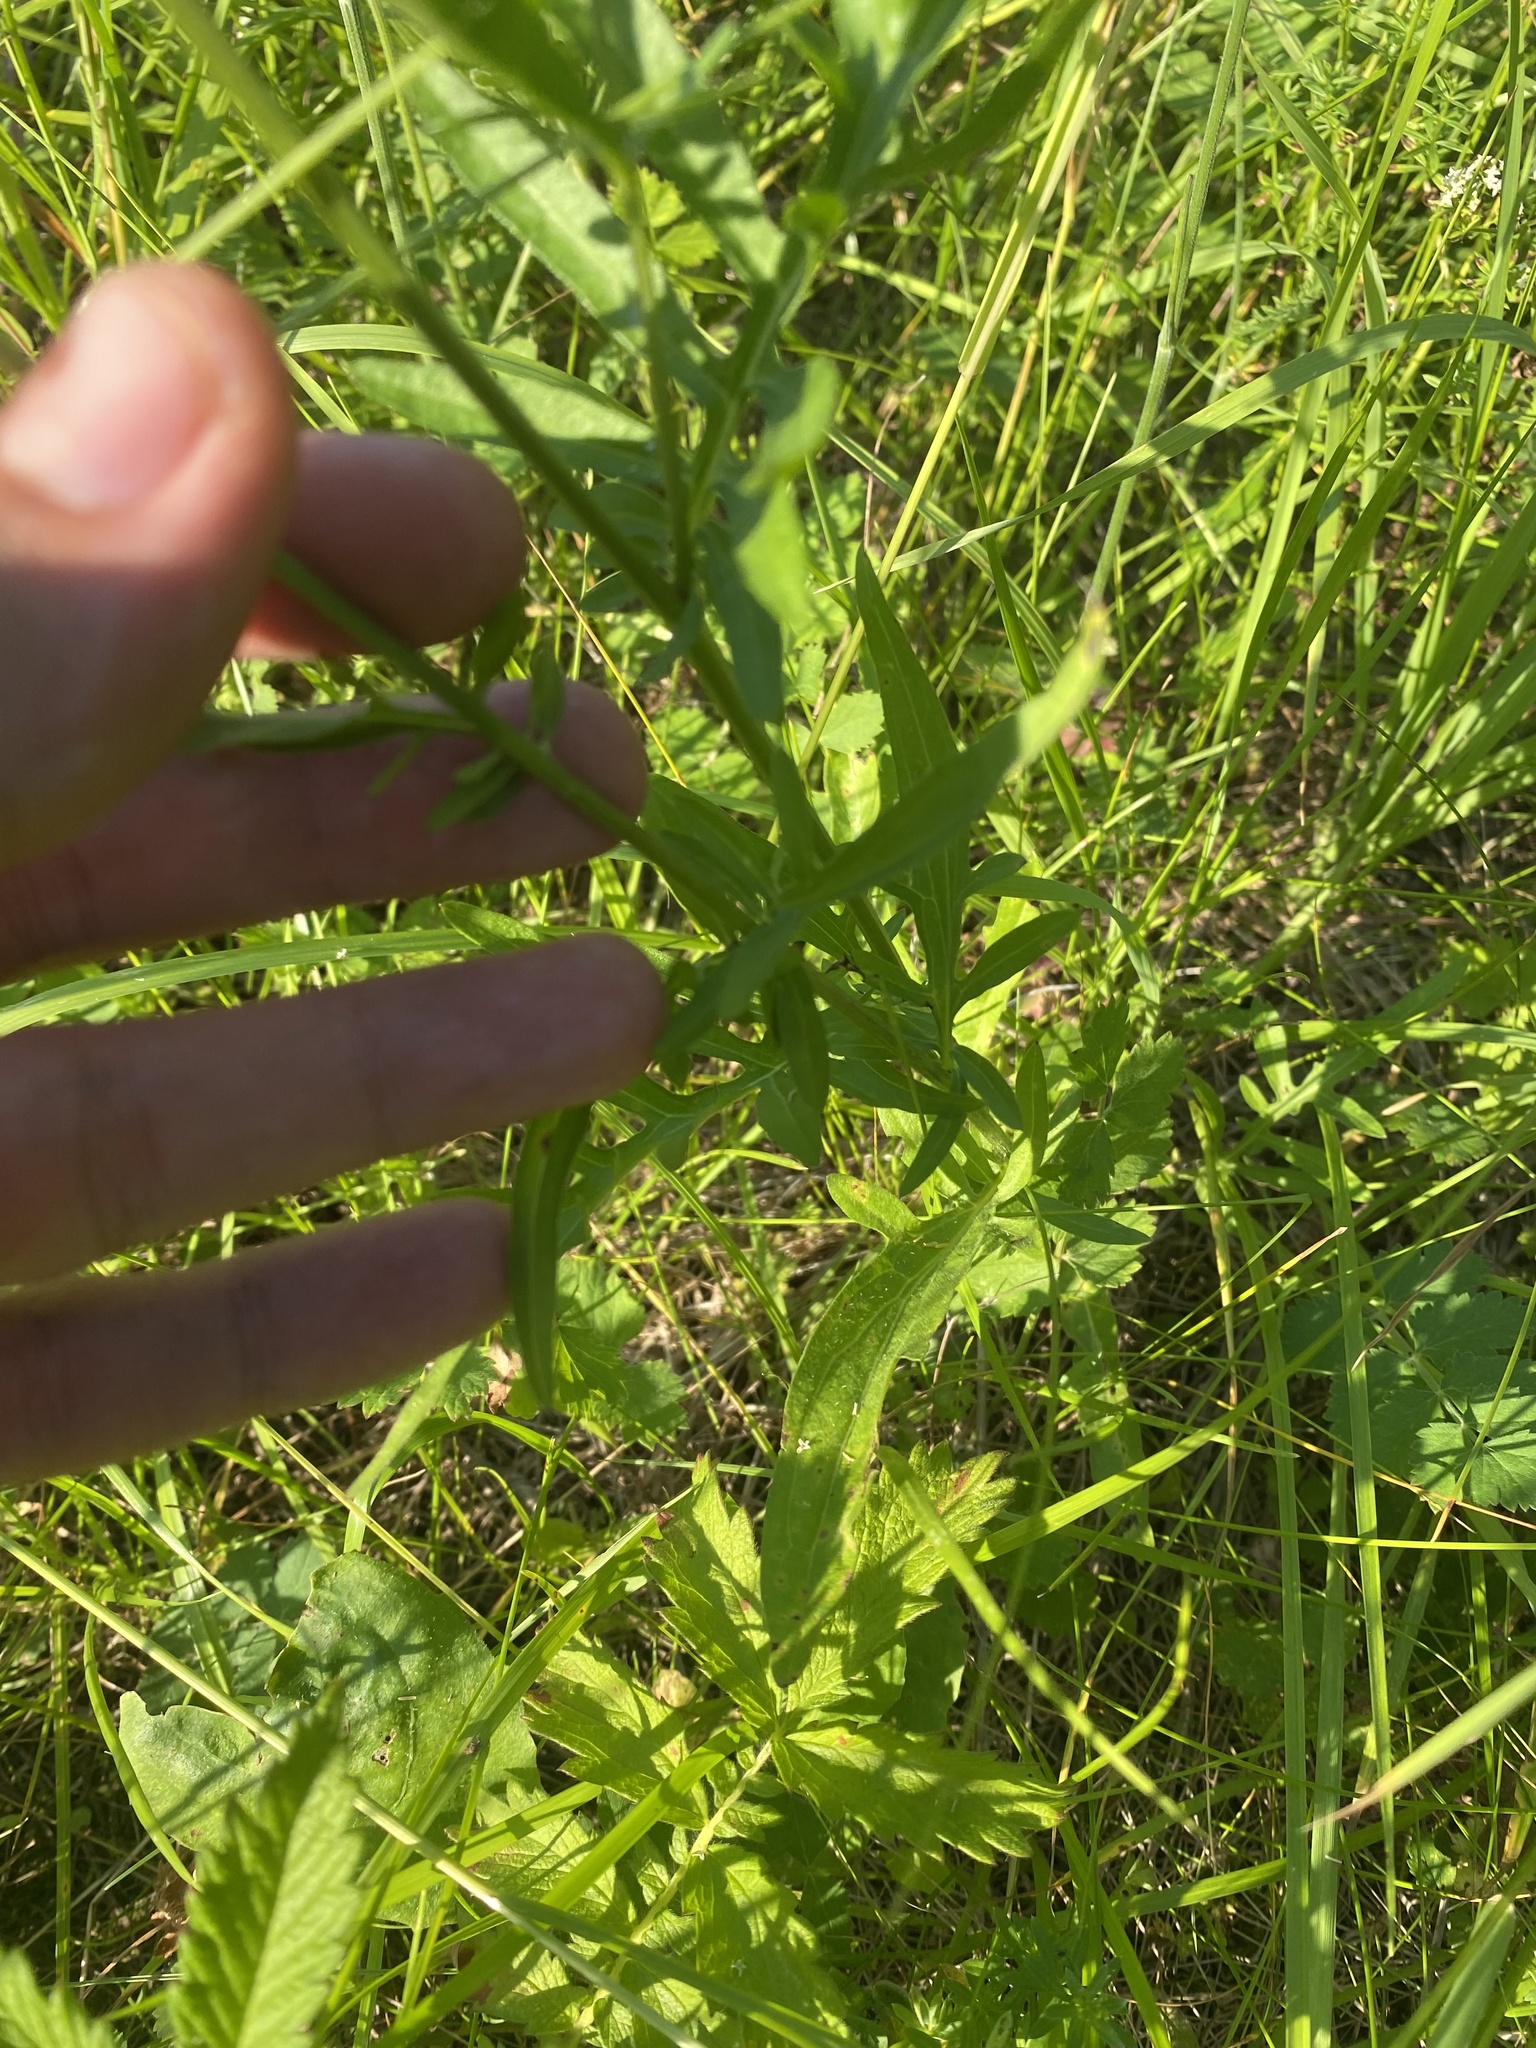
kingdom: Plantae
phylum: Tracheophyta
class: Magnoliopsida
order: Asterales
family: Asteraceae
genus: Centaurea
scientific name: Centaurea scabiosa
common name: Greater knapweed
